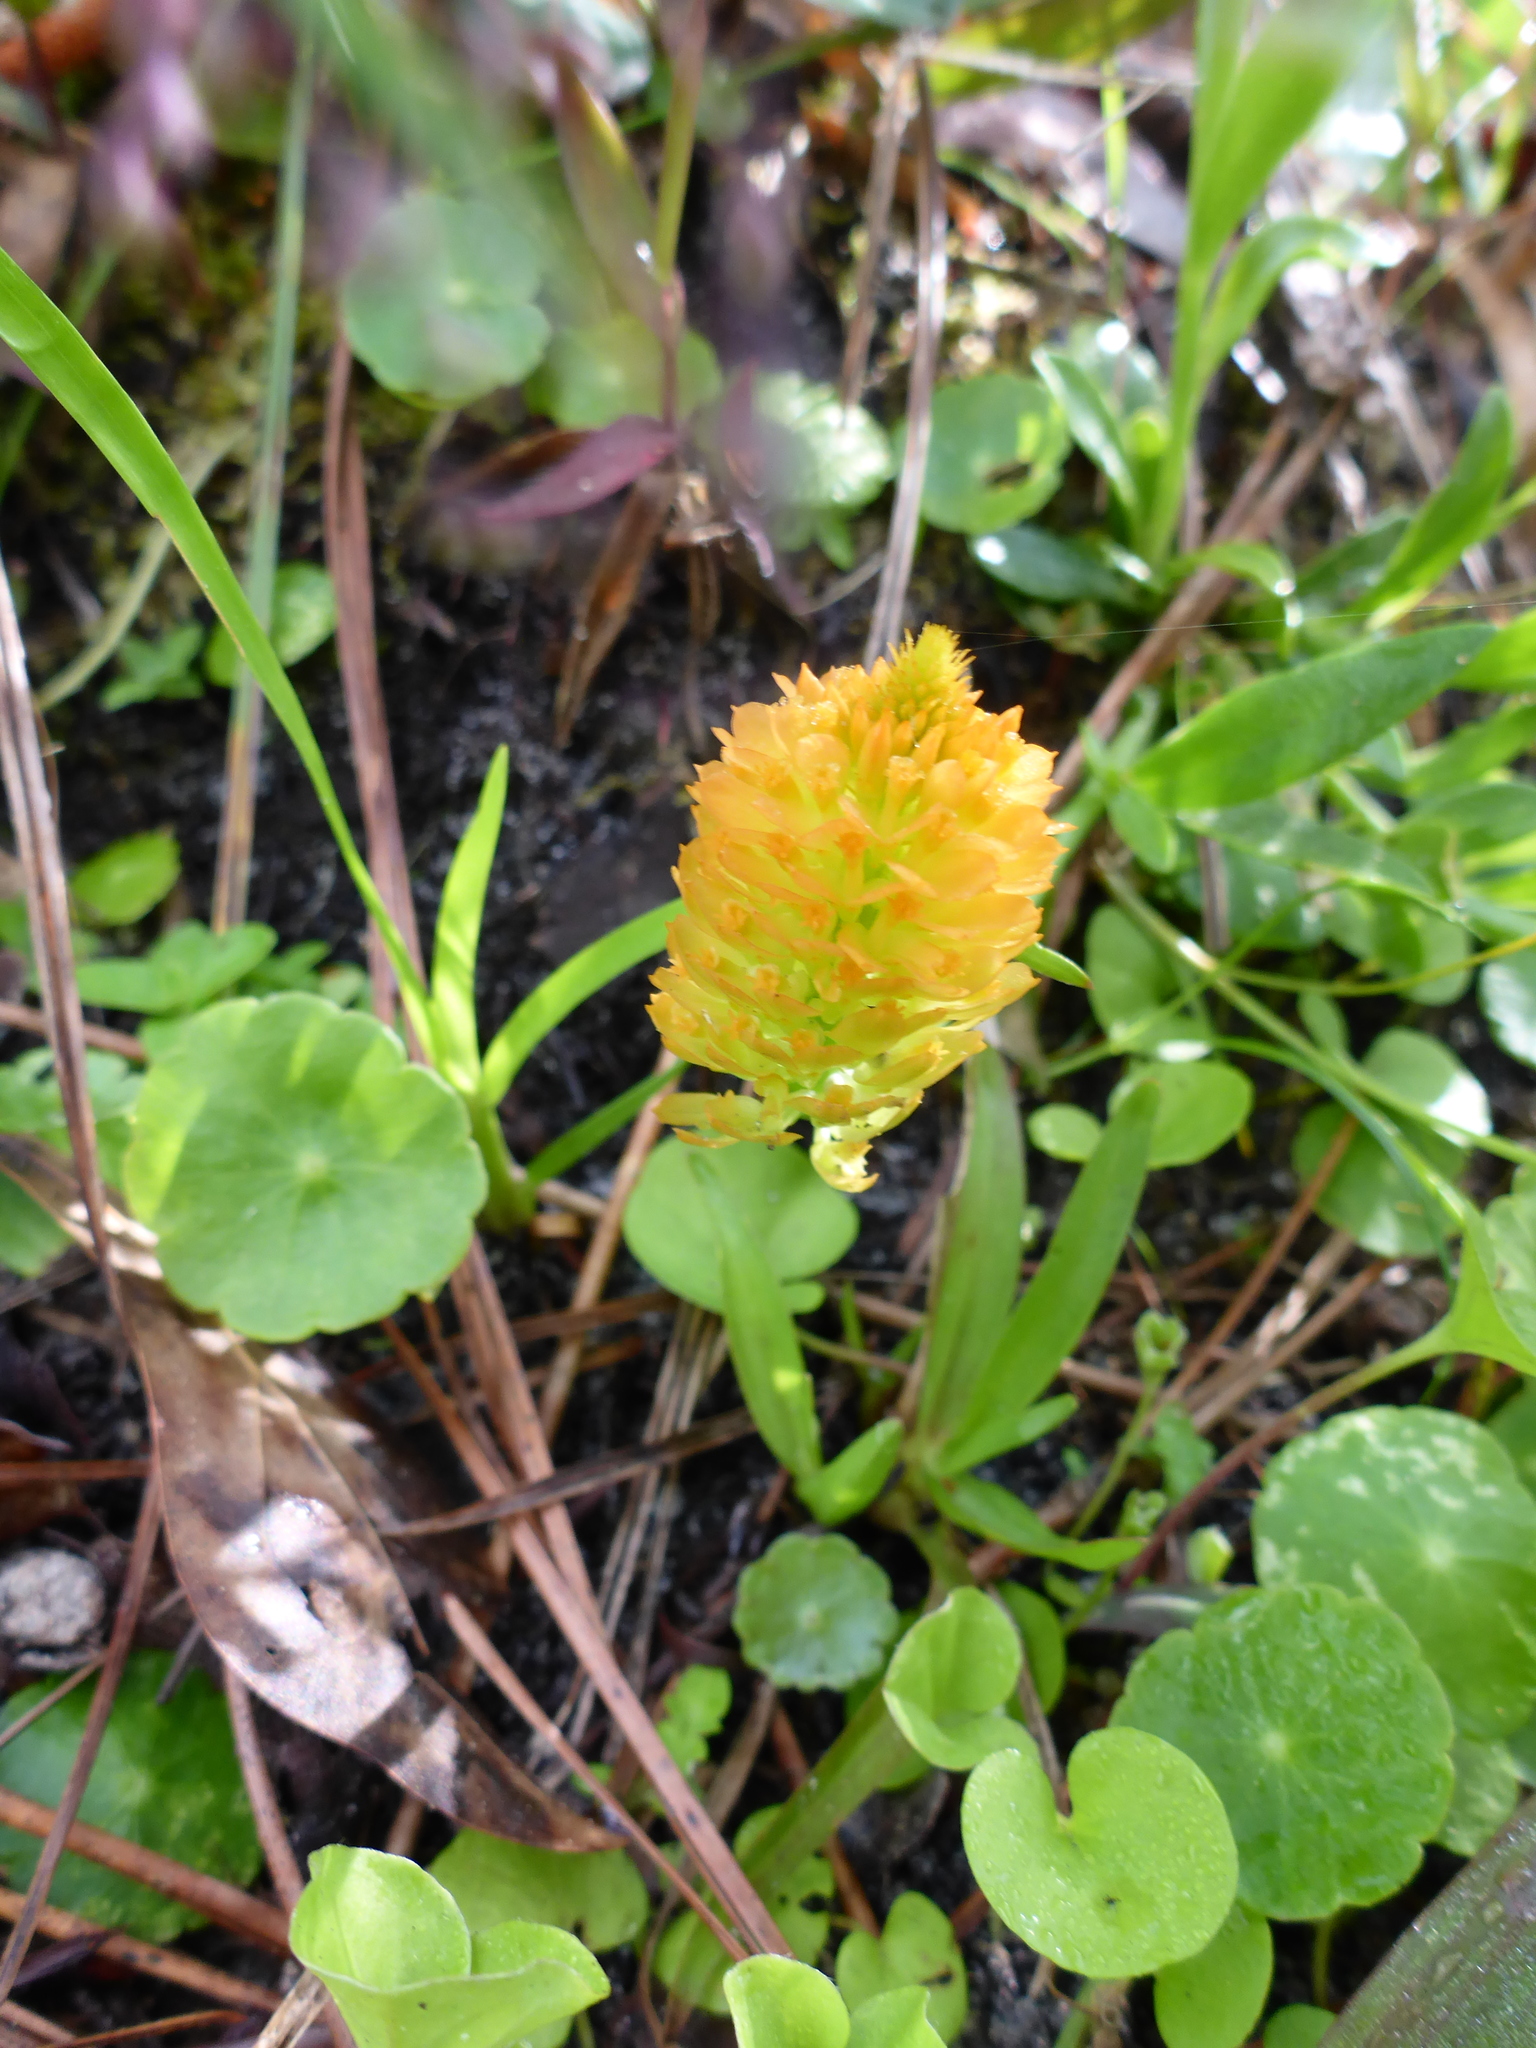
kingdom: Plantae
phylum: Tracheophyta
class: Magnoliopsida
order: Fabales
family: Polygalaceae
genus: Polygala
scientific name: Polygala lutea
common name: Orange milkwort
